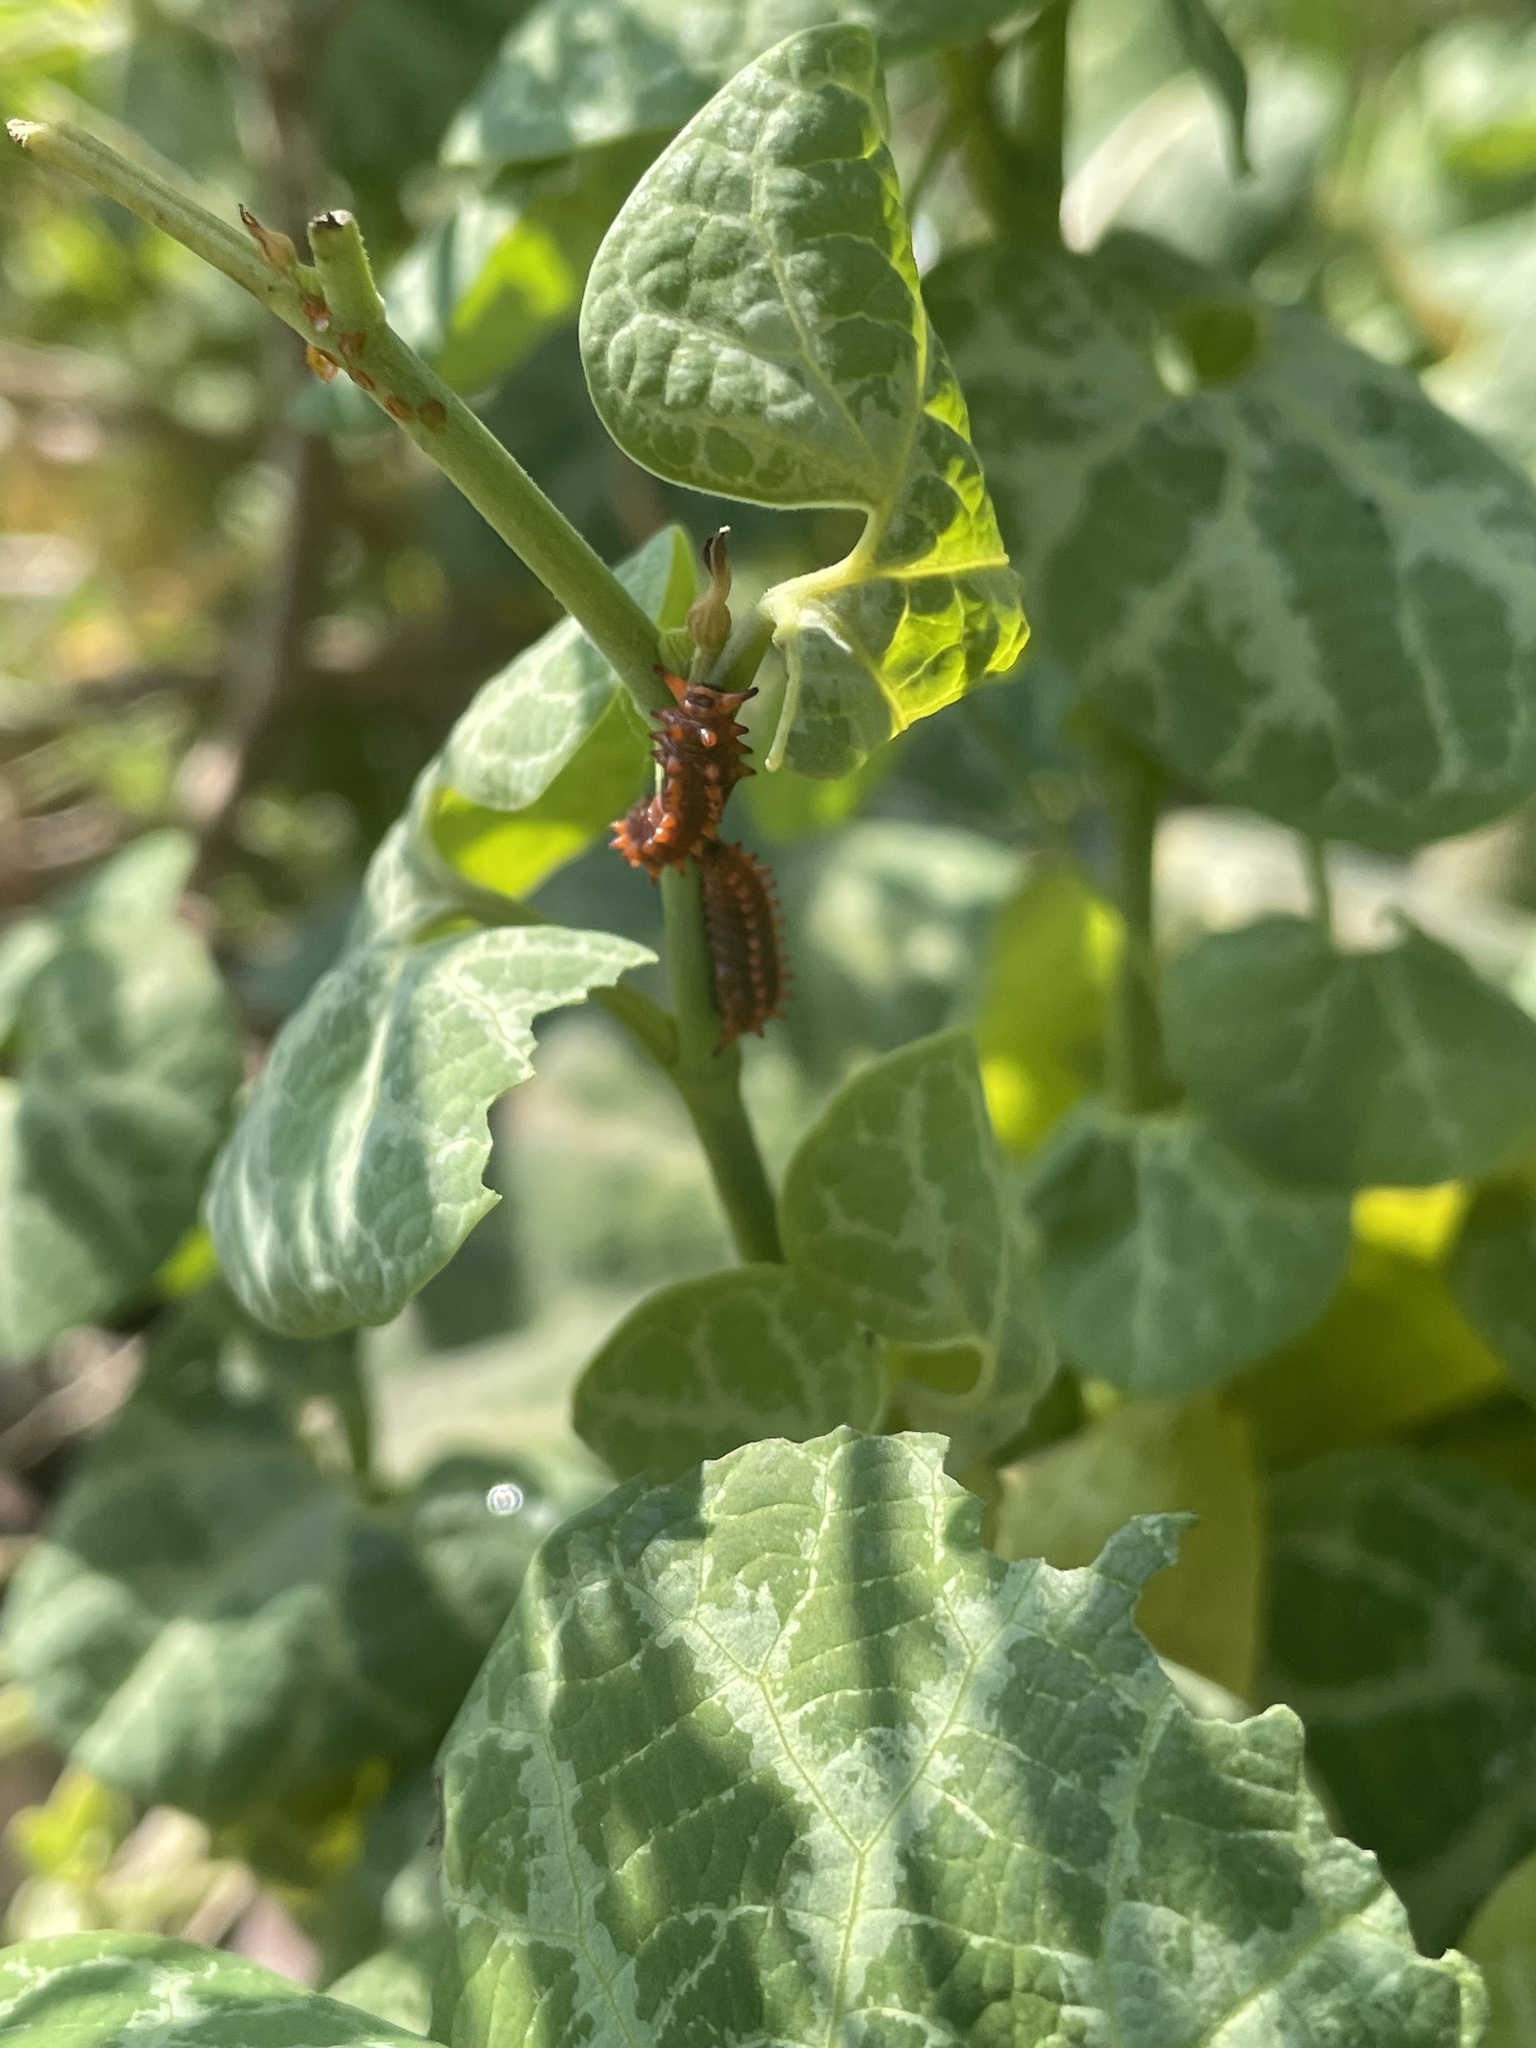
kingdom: Animalia
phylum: Arthropoda
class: Insecta
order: Lepidoptera
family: Papilionidae
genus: Battus
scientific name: Battus philenor
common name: Pipevine swallowtail
